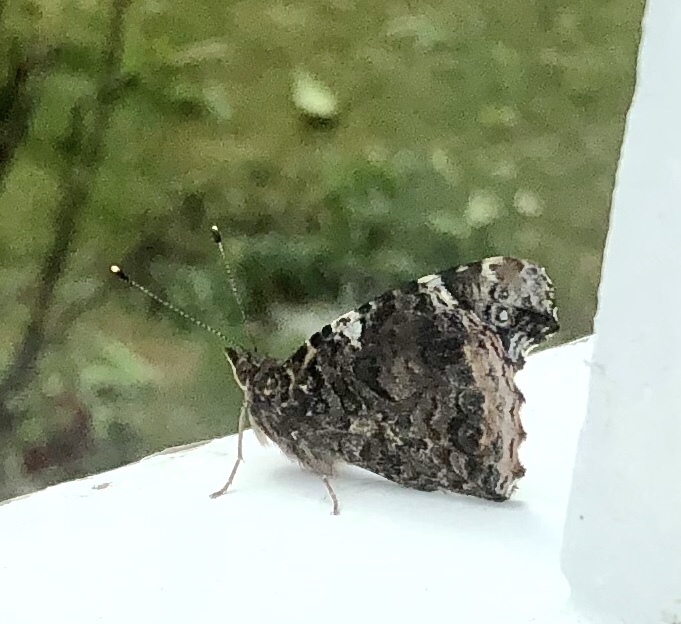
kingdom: Animalia
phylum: Arthropoda
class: Insecta
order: Lepidoptera
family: Nymphalidae
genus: Vanessa
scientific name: Vanessa atalanta
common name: Red admiral
